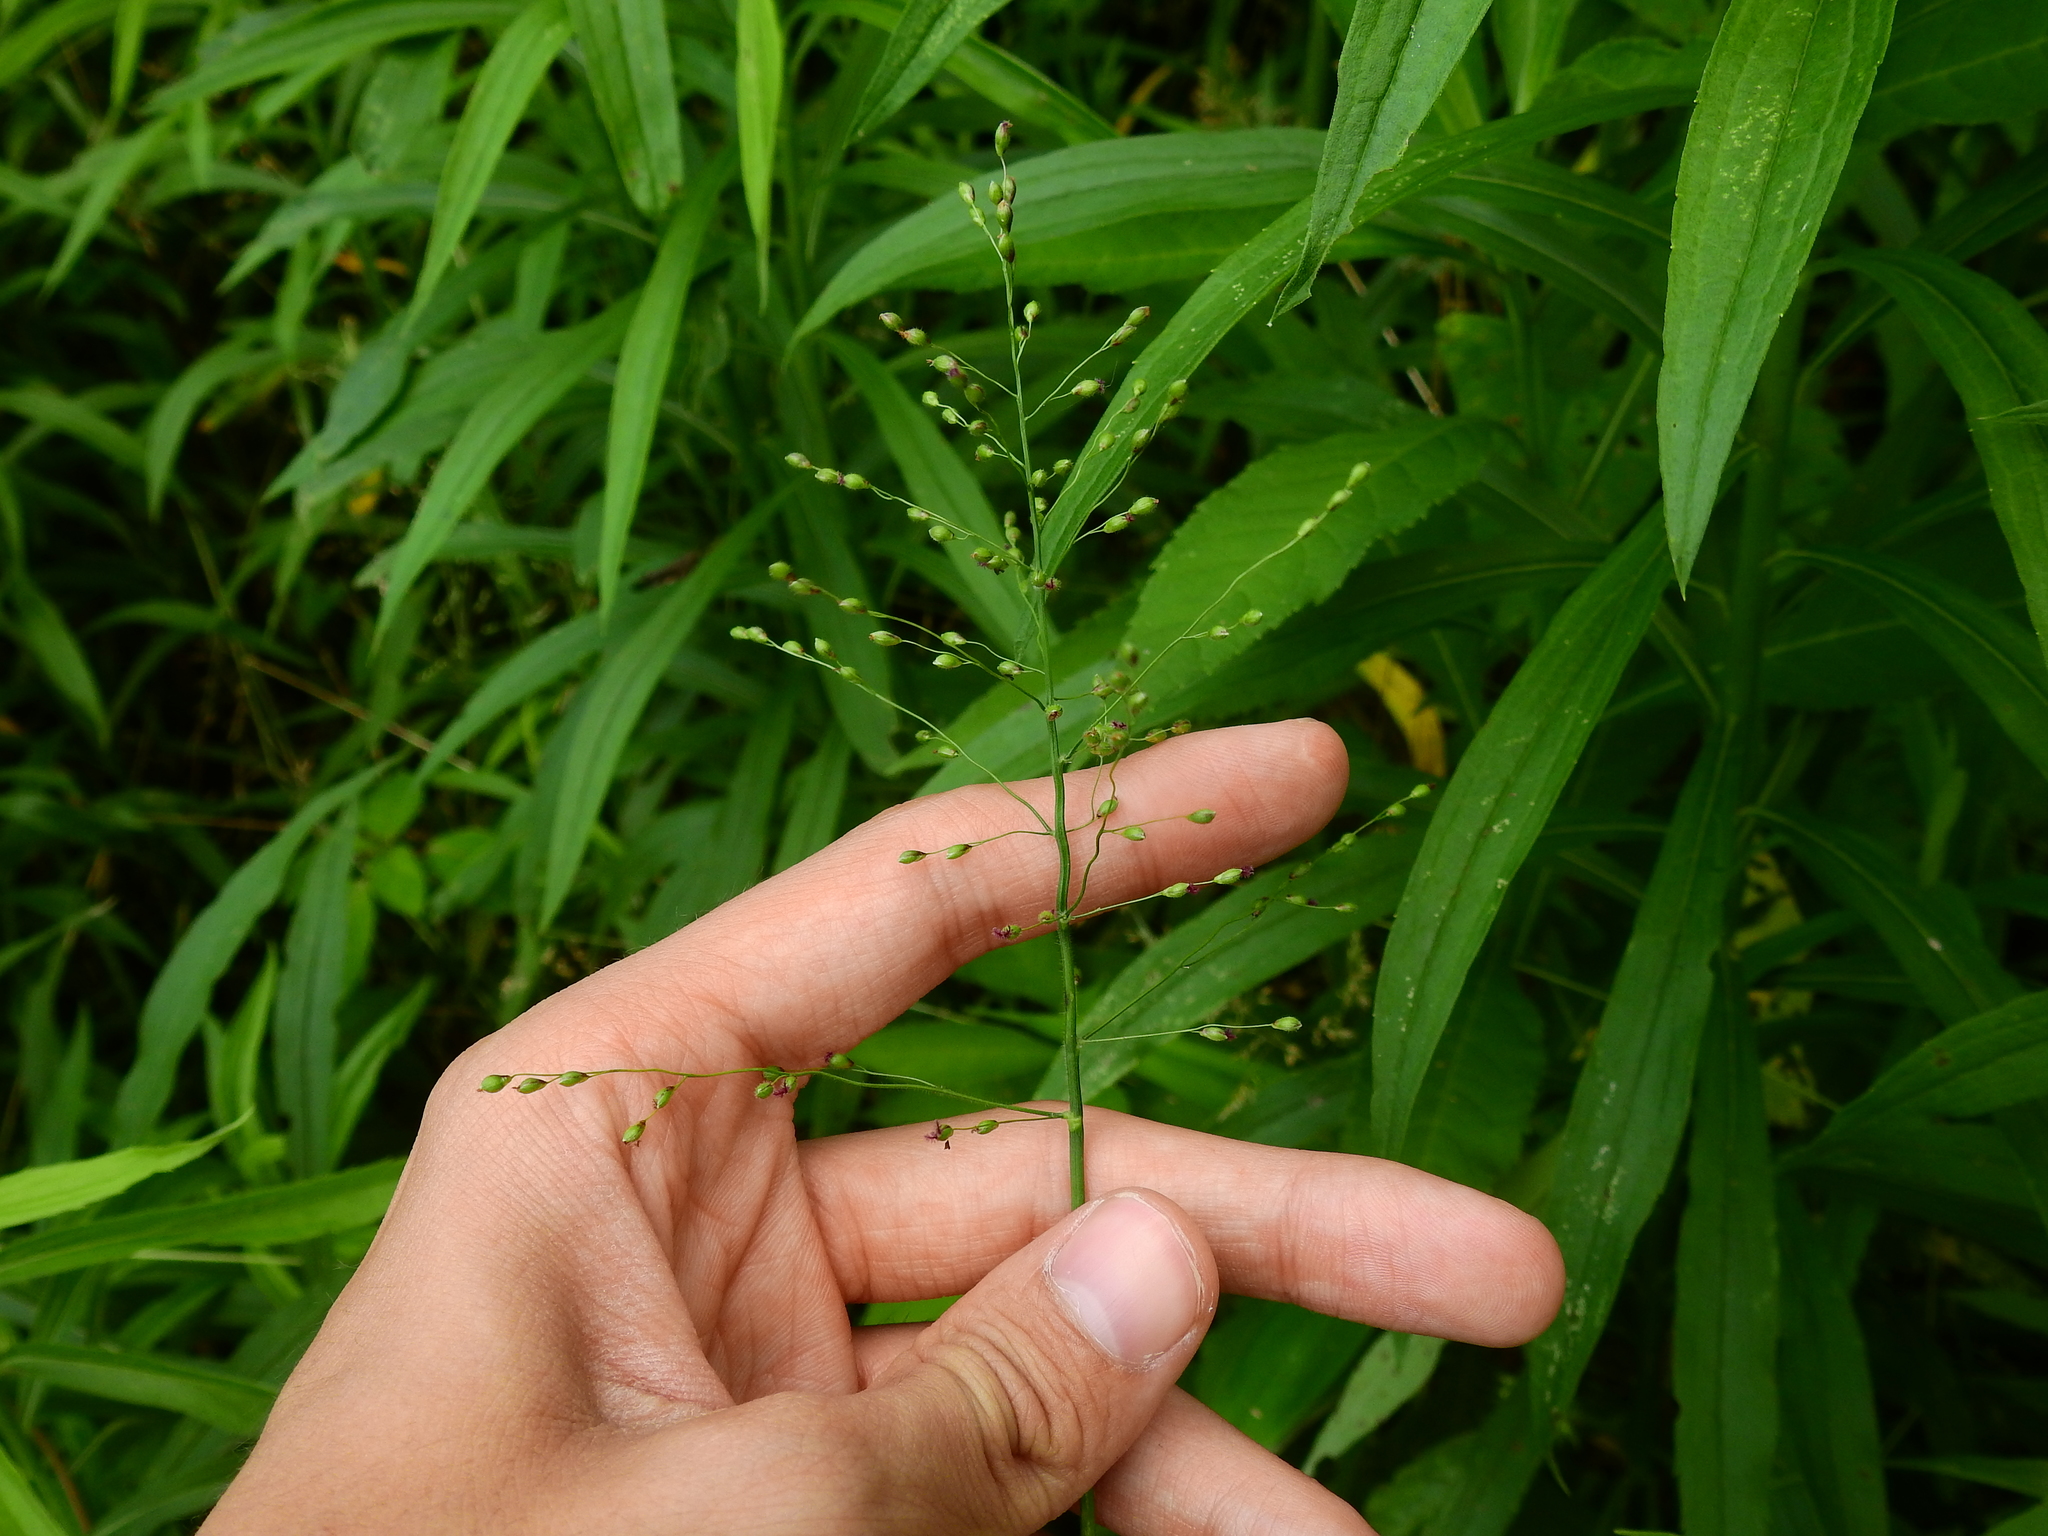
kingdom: Plantae
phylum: Tracheophyta
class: Liliopsida
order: Poales
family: Poaceae
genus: Dichanthelium
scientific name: Dichanthelium clandestinum
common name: Deer-tongue grass
